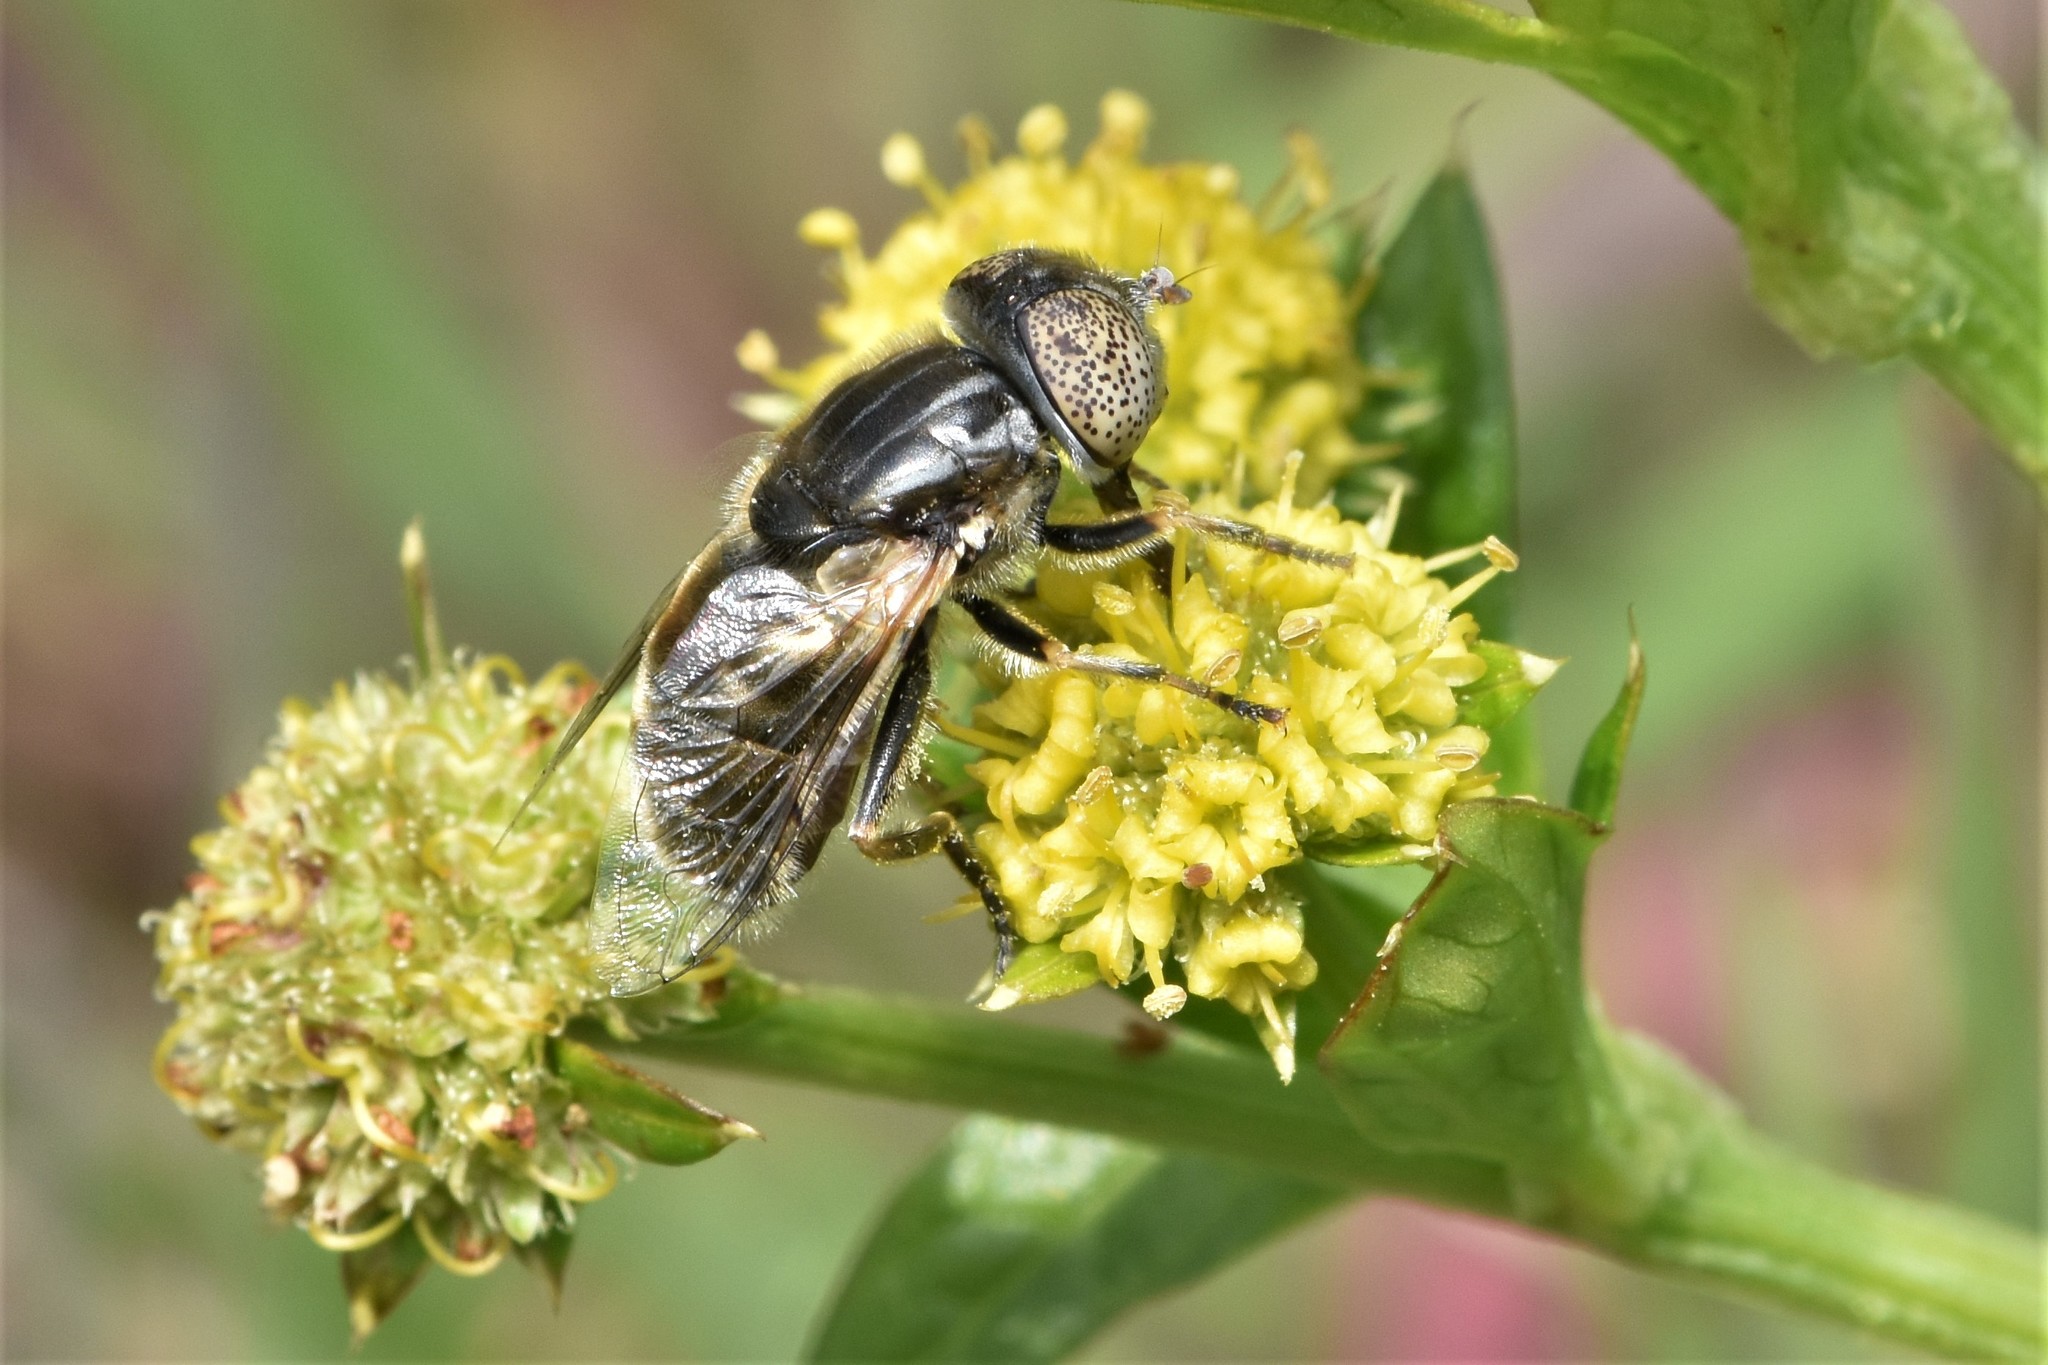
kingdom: Animalia
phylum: Arthropoda
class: Insecta
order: Diptera
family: Syrphidae
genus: Eristalinus
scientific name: Eristalinus aeneus
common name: Syrphid fly
